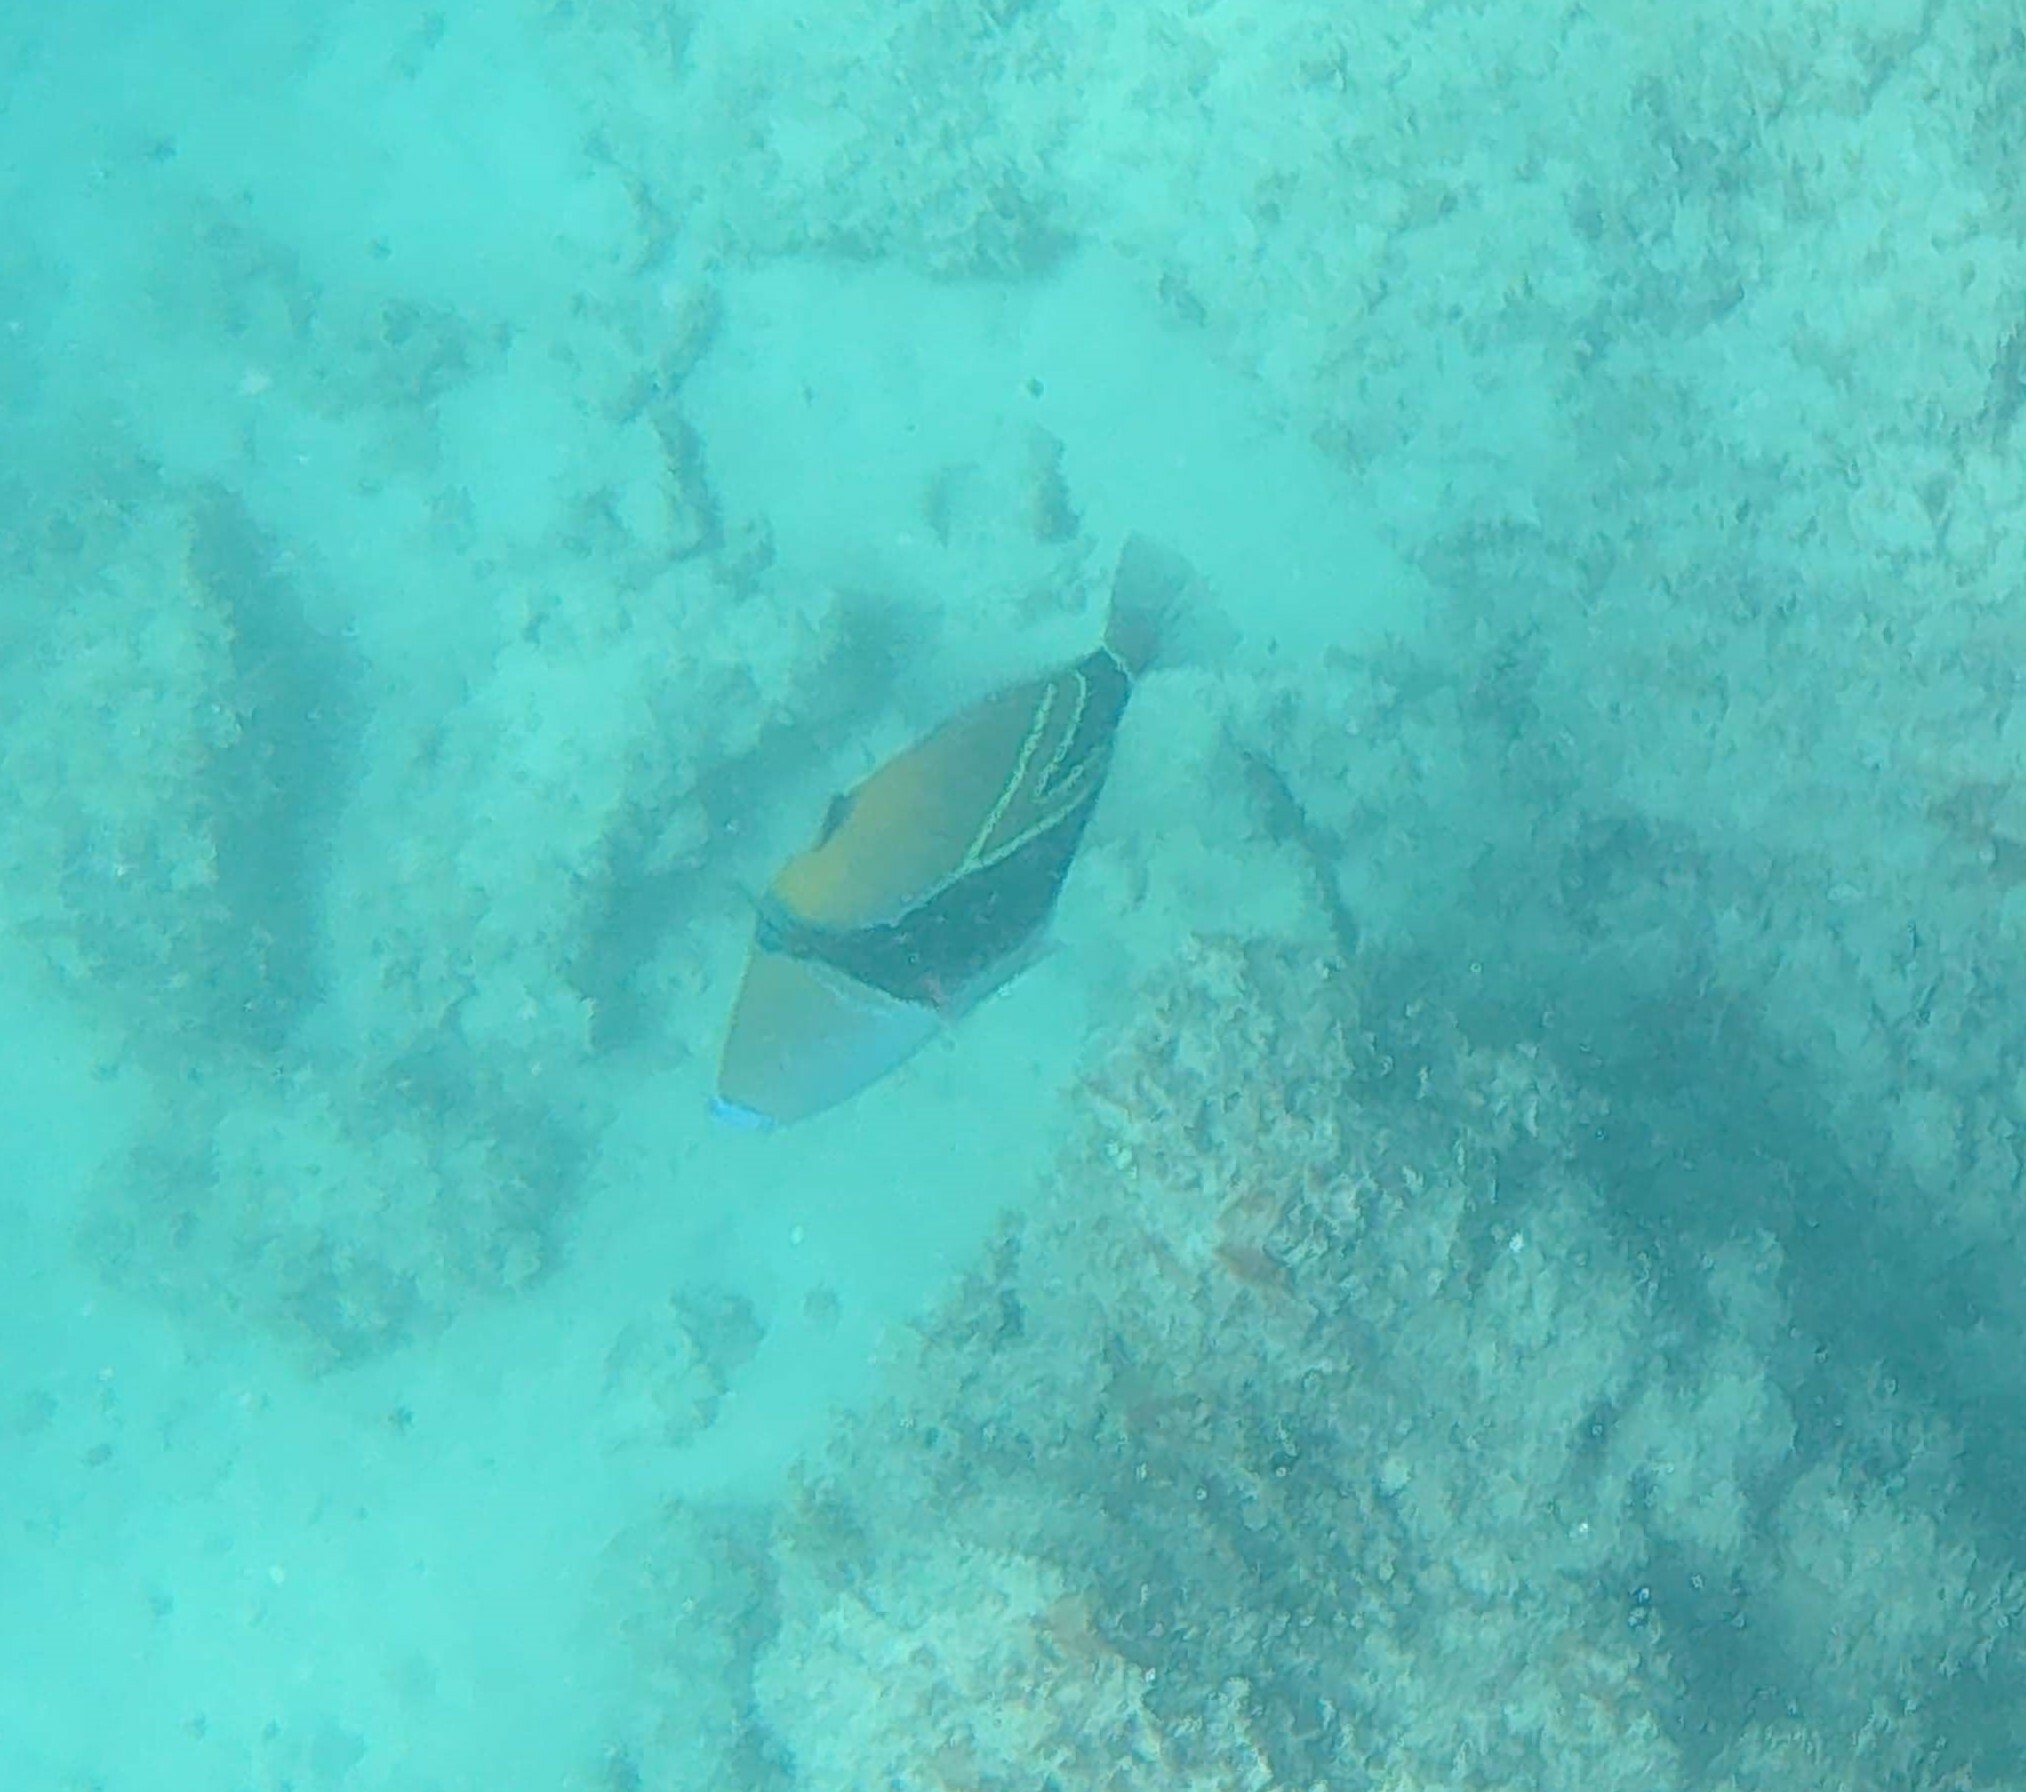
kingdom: Animalia
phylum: Chordata
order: Tetraodontiformes
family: Balistidae
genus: Rhinecanthus
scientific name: Rhinecanthus rectangulus
